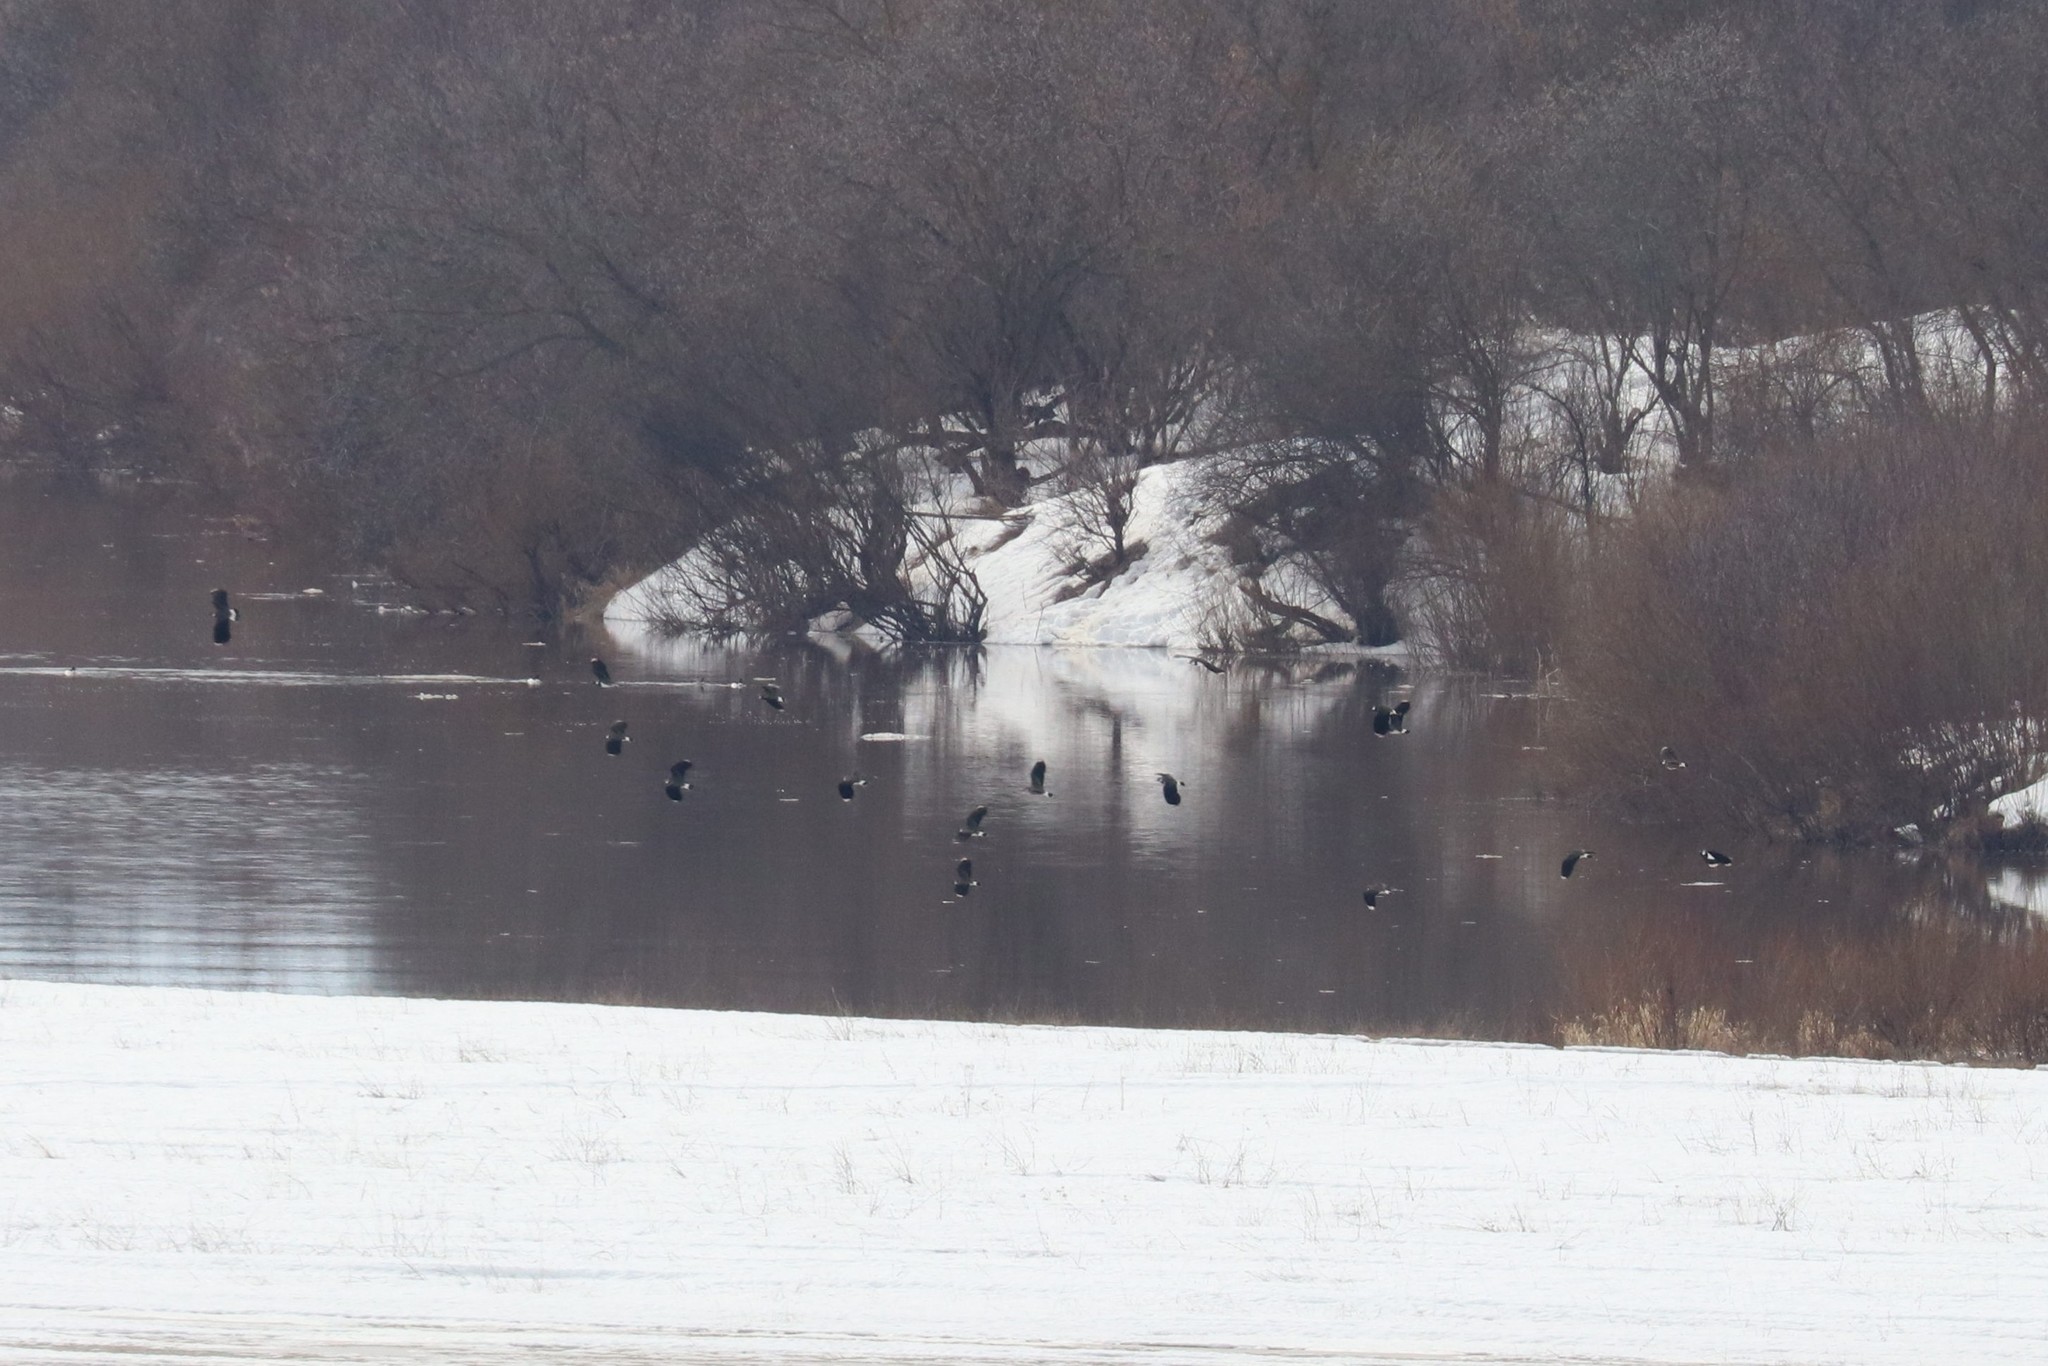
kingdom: Animalia
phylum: Chordata
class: Aves
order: Charadriiformes
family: Charadriidae
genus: Vanellus
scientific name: Vanellus vanellus
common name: Northern lapwing
